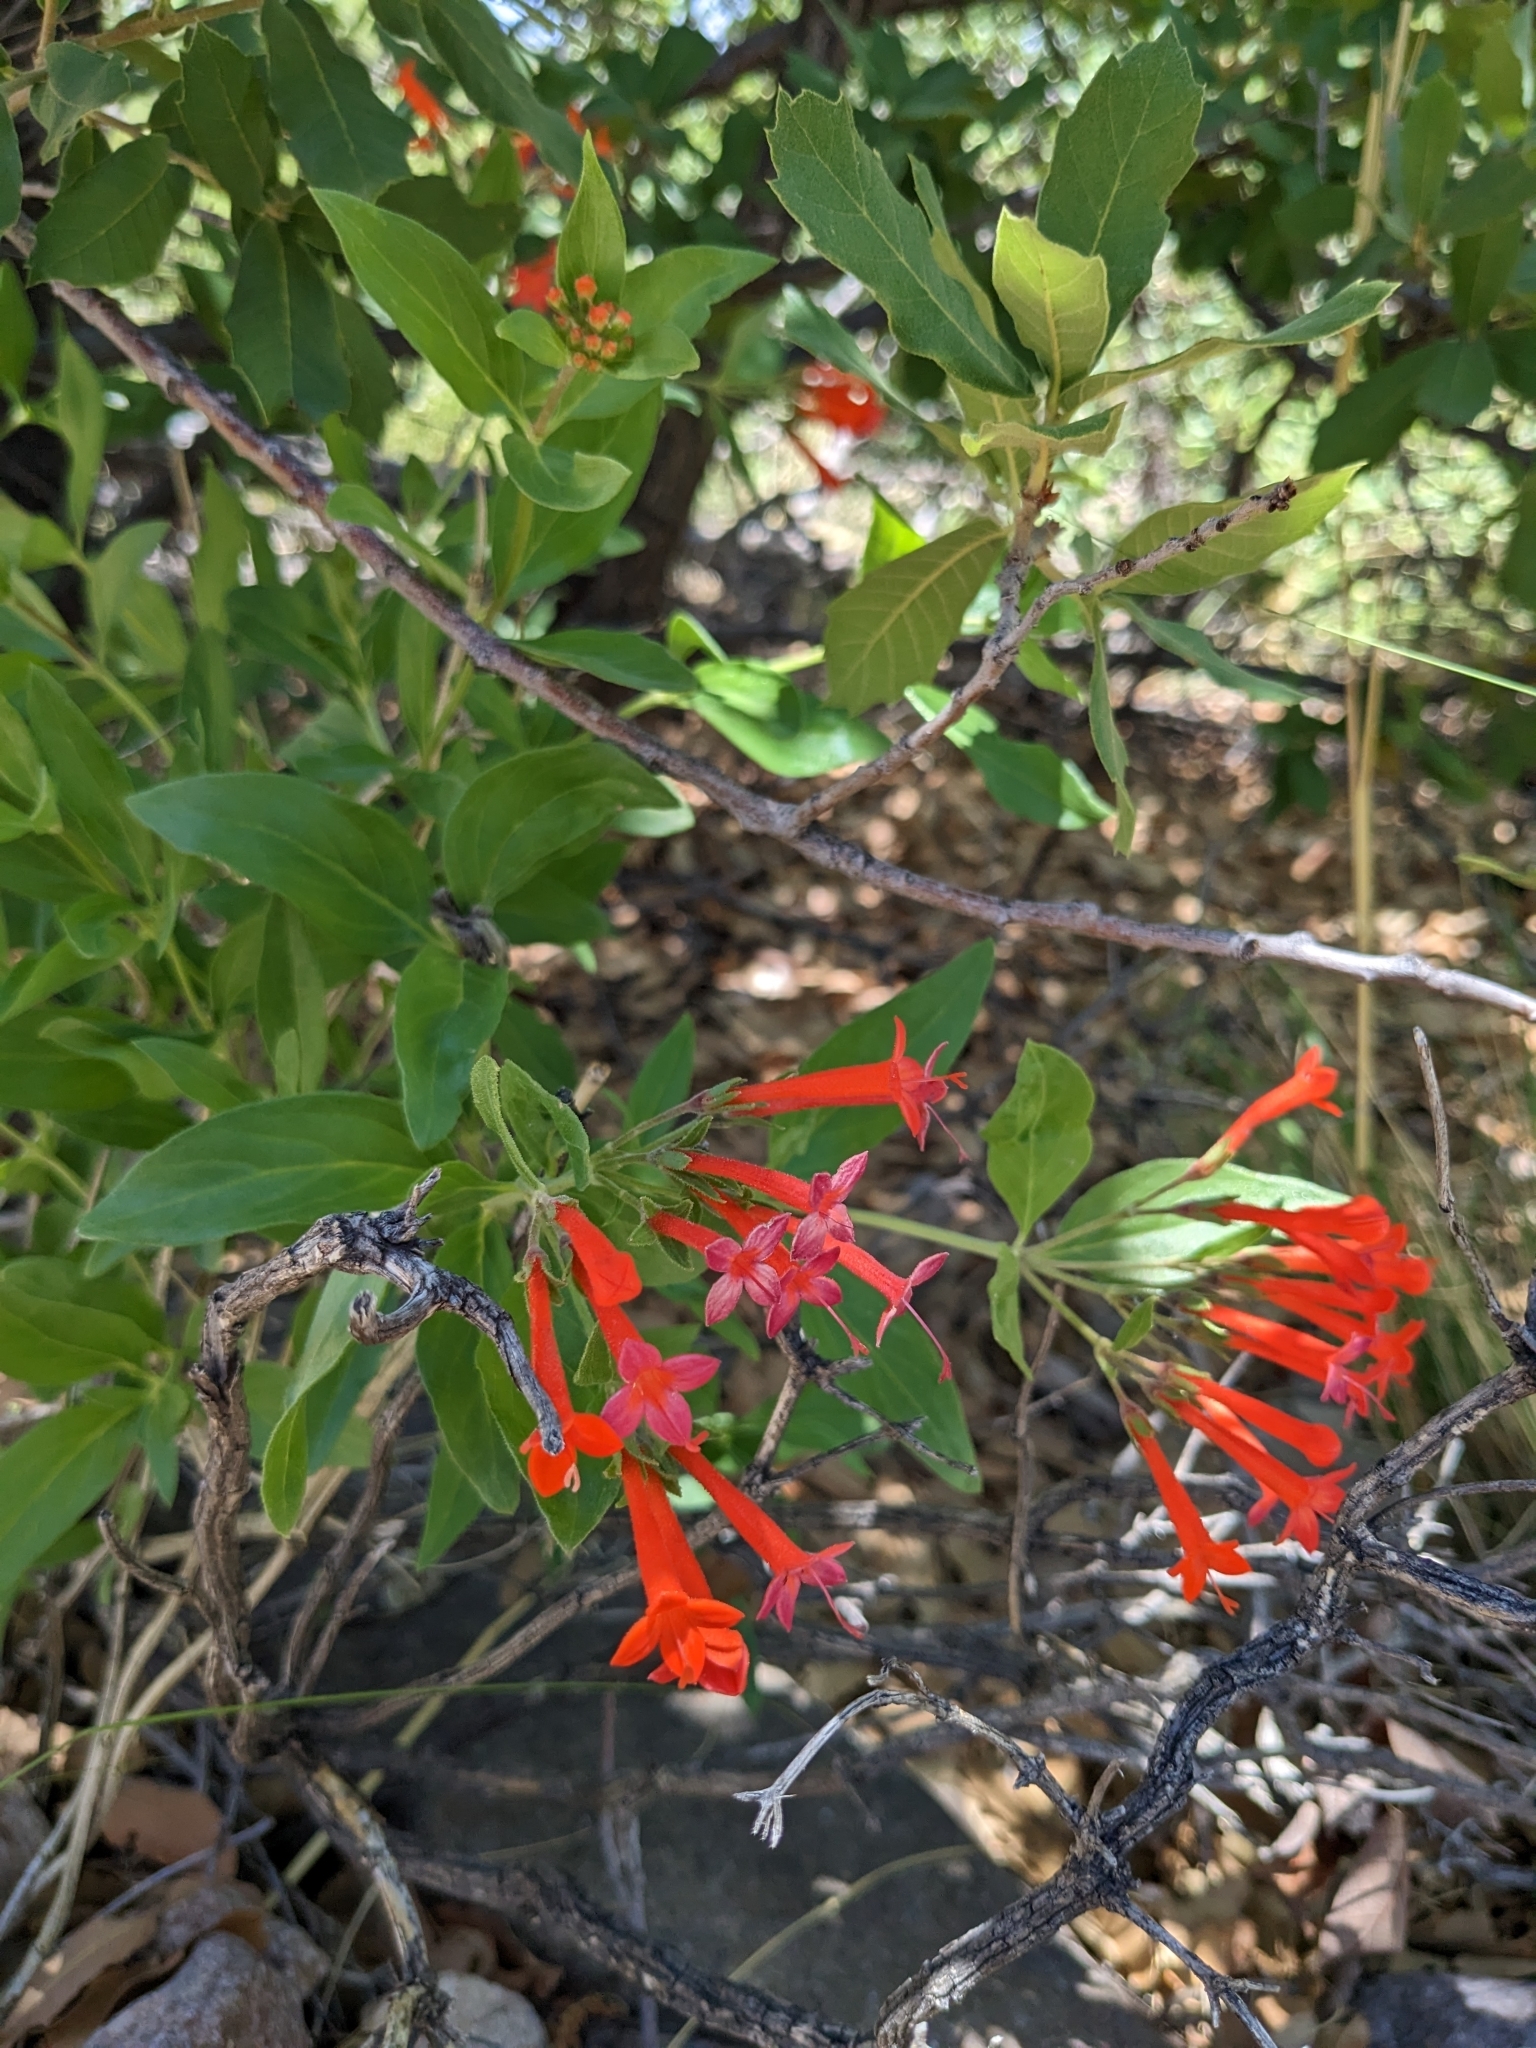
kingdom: Plantae
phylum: Tracheophyta
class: Magnoliopsida
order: Gentianales
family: Rubiaceae
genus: Bouvardia
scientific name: Bouvardia ternifolia
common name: Scarlet bouvardia
